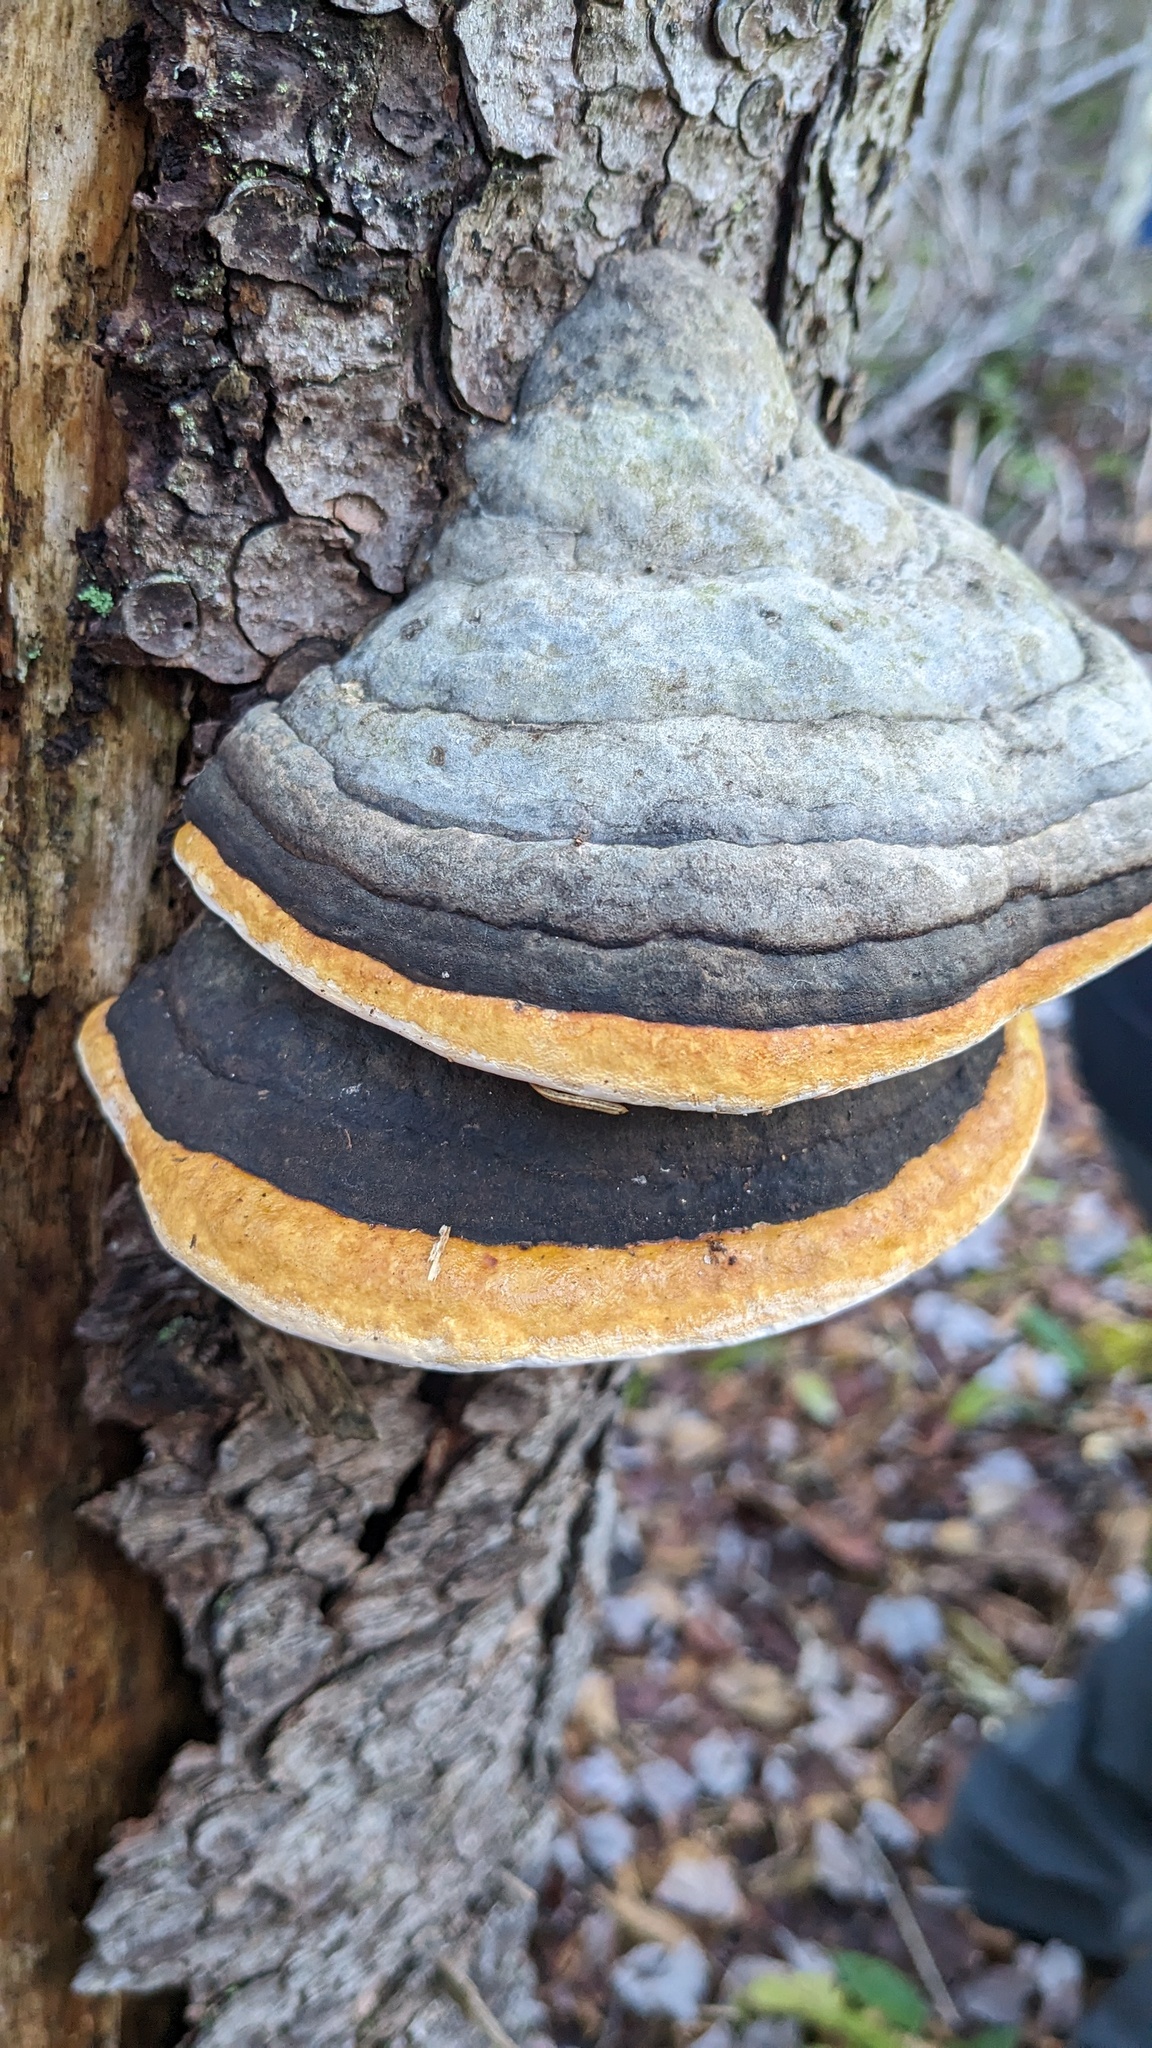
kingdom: Fungi
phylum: Basidiomycota
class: Agaricomycetes
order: Polyporales
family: Fomitopsidaceae
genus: Fomitopsis
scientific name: Fomitopsis mounceae
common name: Northern red belt
